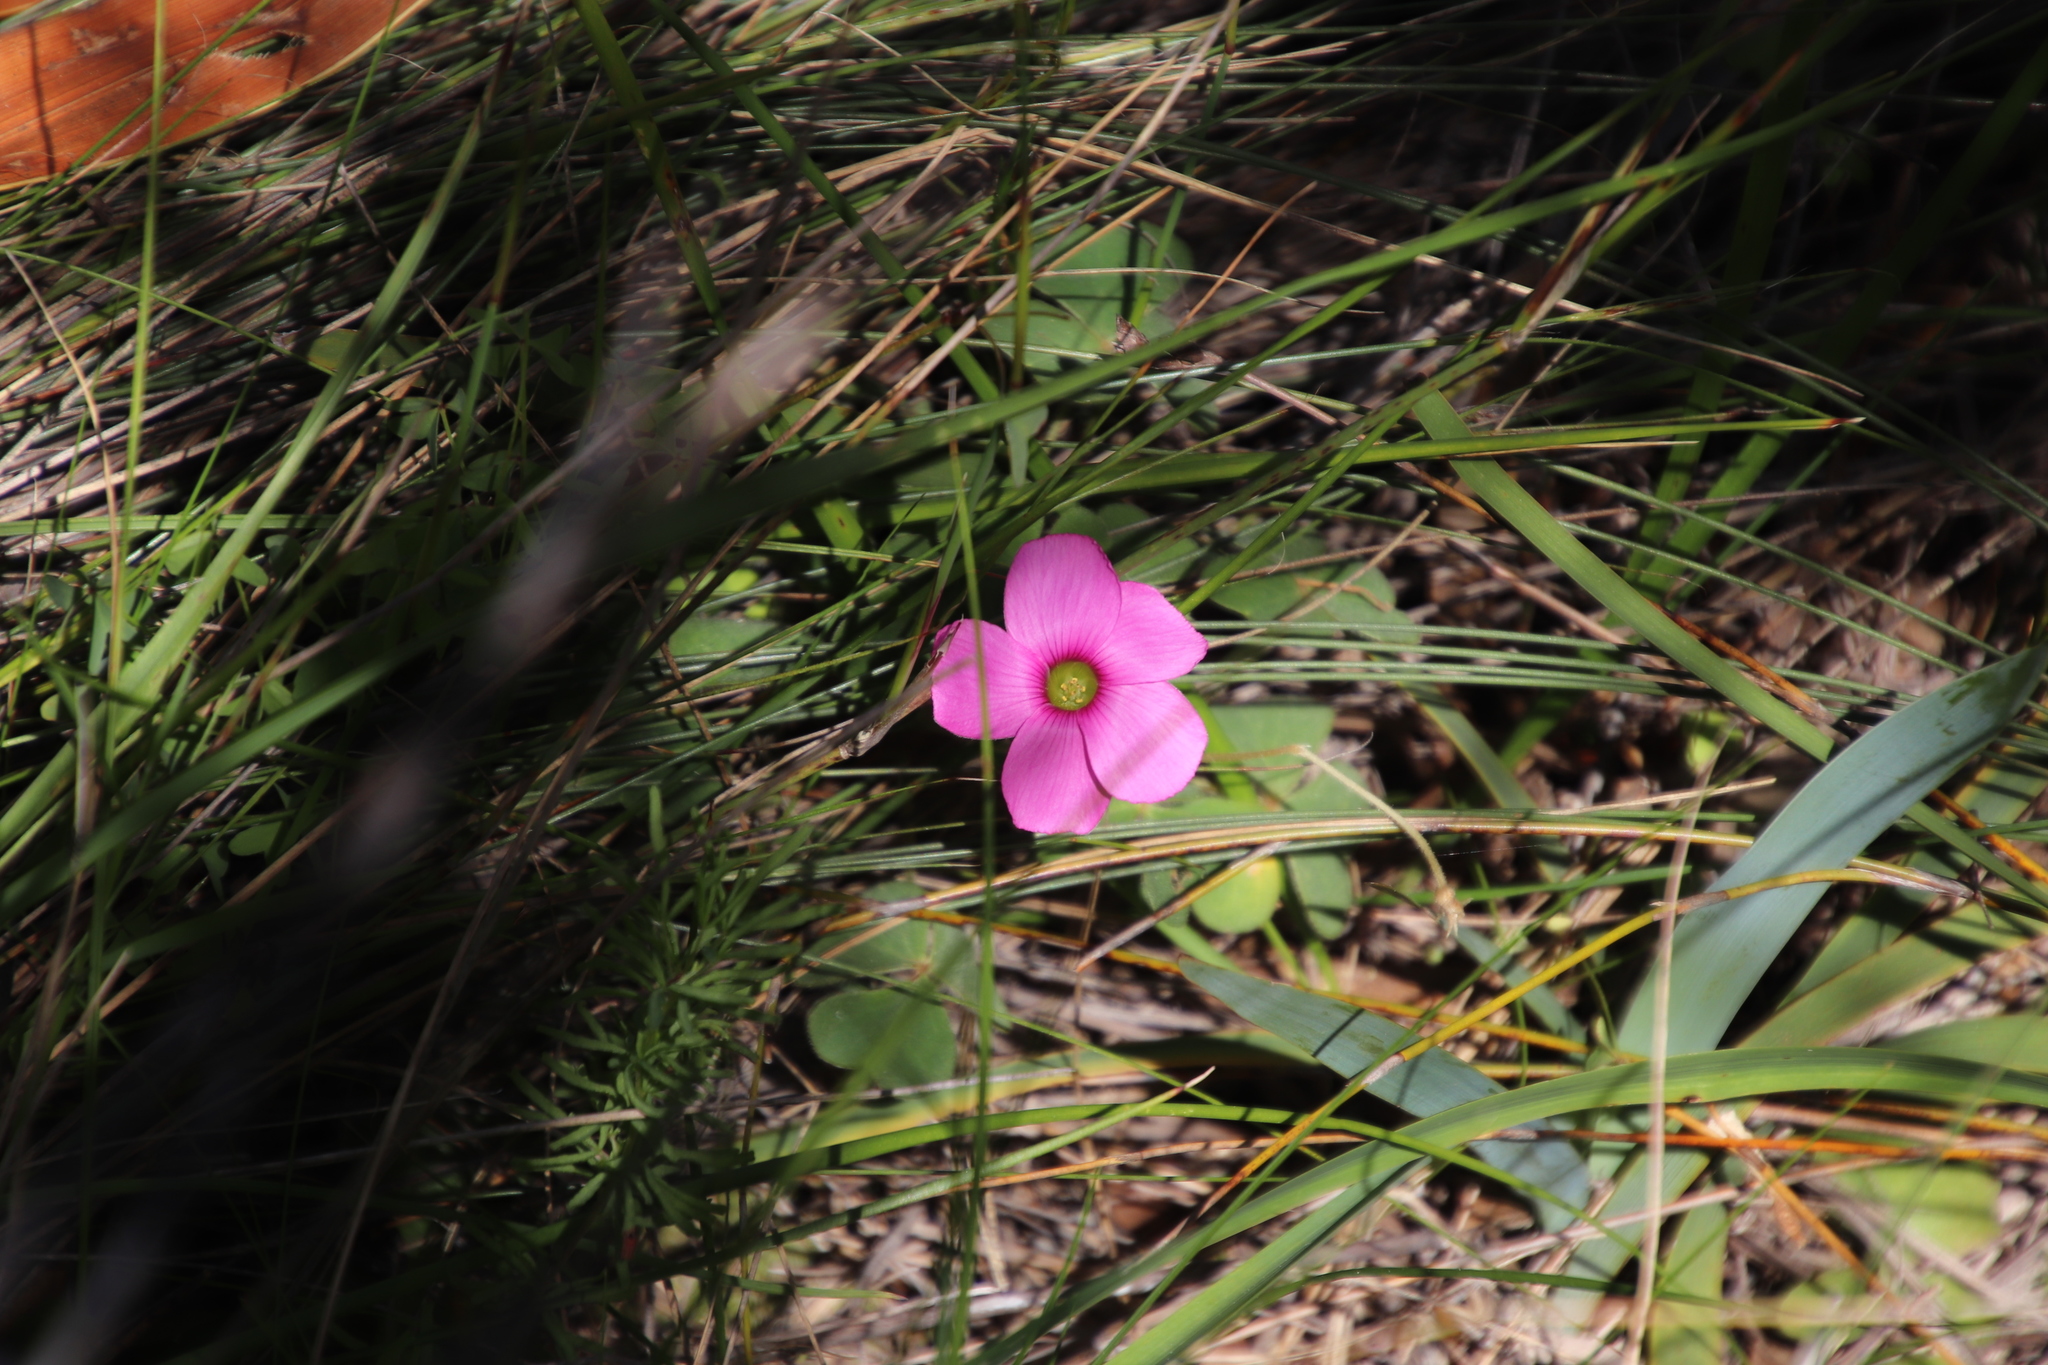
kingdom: Plantae
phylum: Tracheophyta
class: Magnoliopsida
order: Oxalidales
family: Oxalidaceae
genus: Oxalis
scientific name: Oxalis lanata
